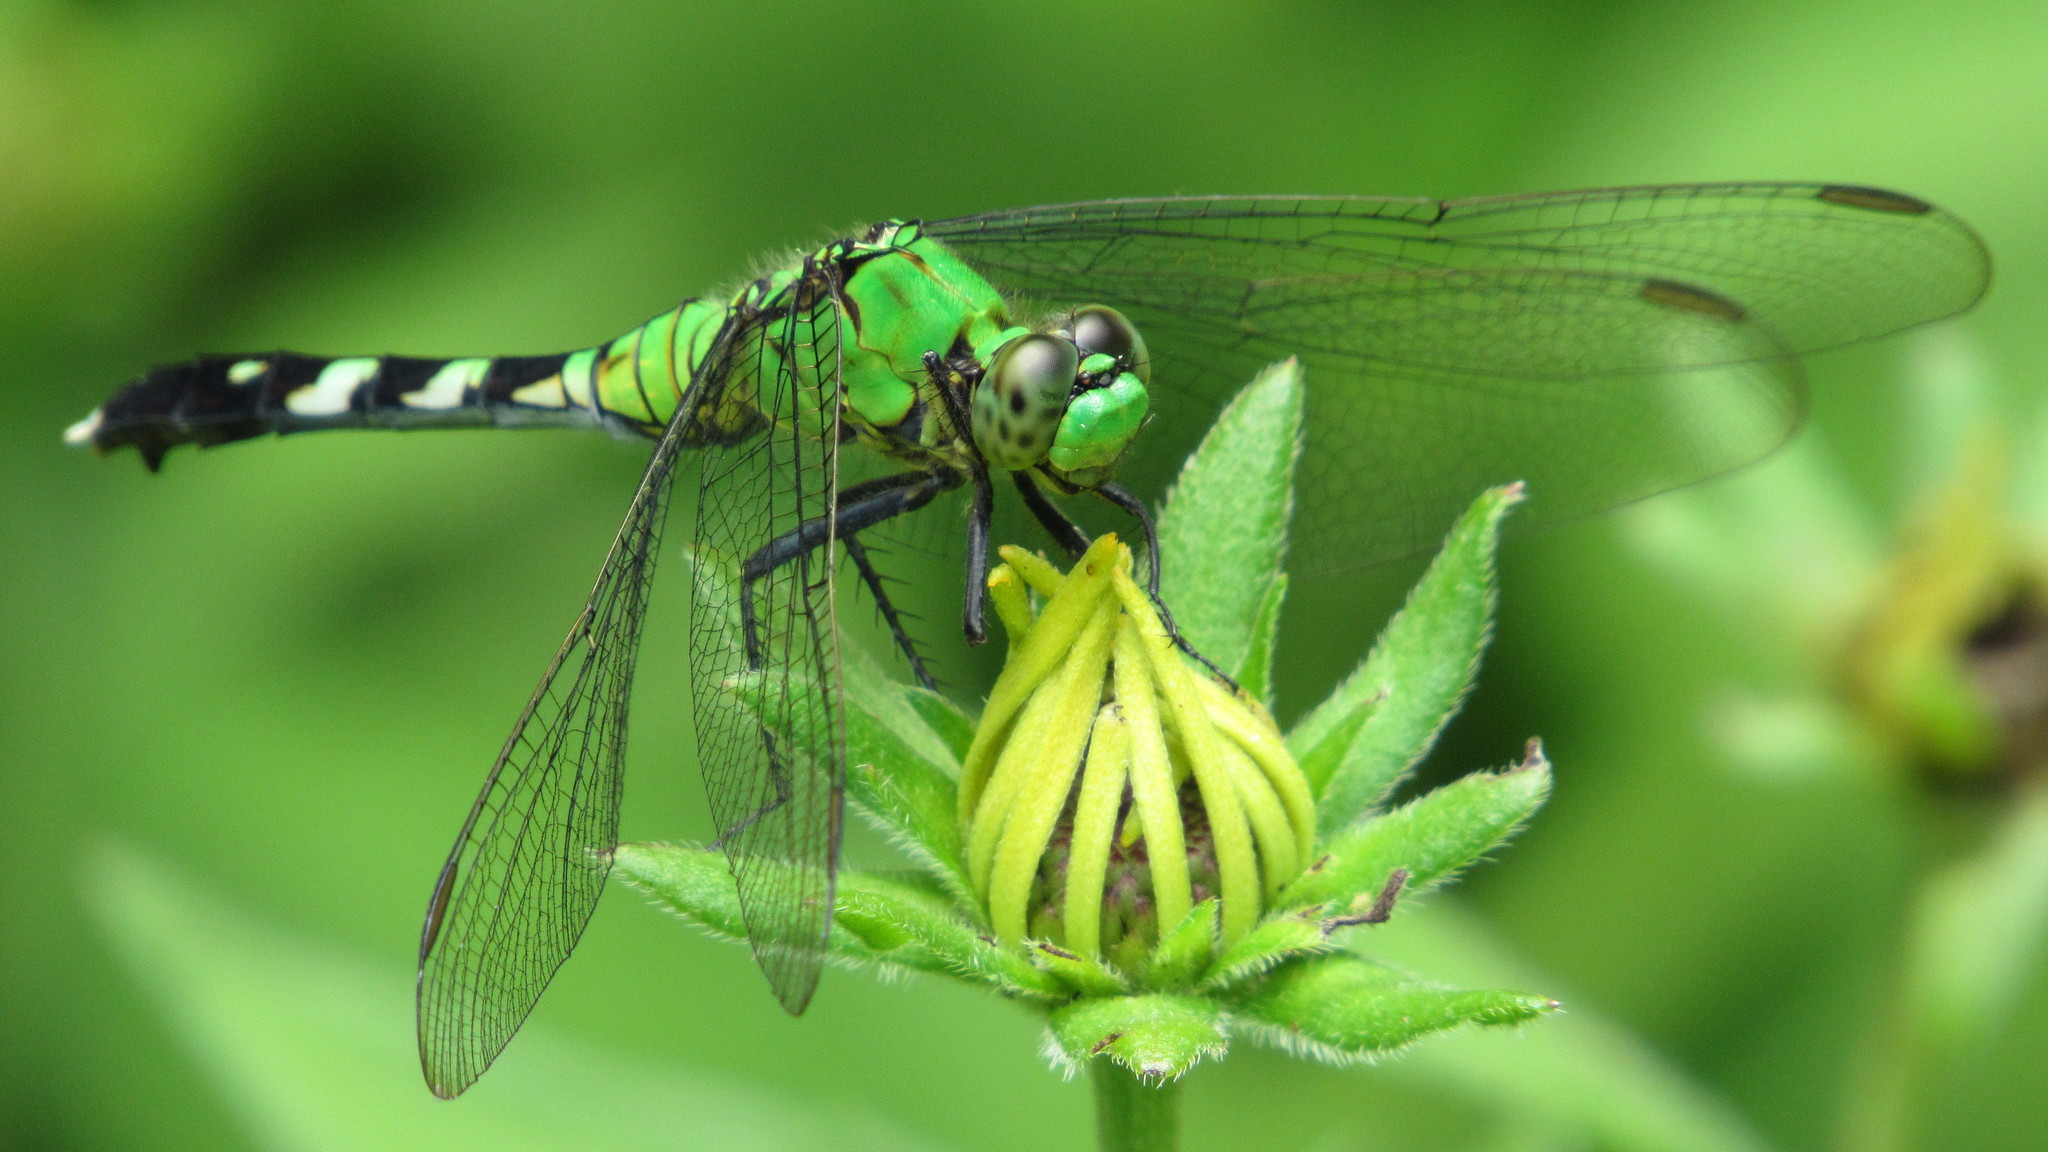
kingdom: Animalia
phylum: Arthropoda
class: Insecta
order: Odonata
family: Libellulidae
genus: Erythemis
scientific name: Erythemis simplicicollis
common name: Eastern pondhawk
